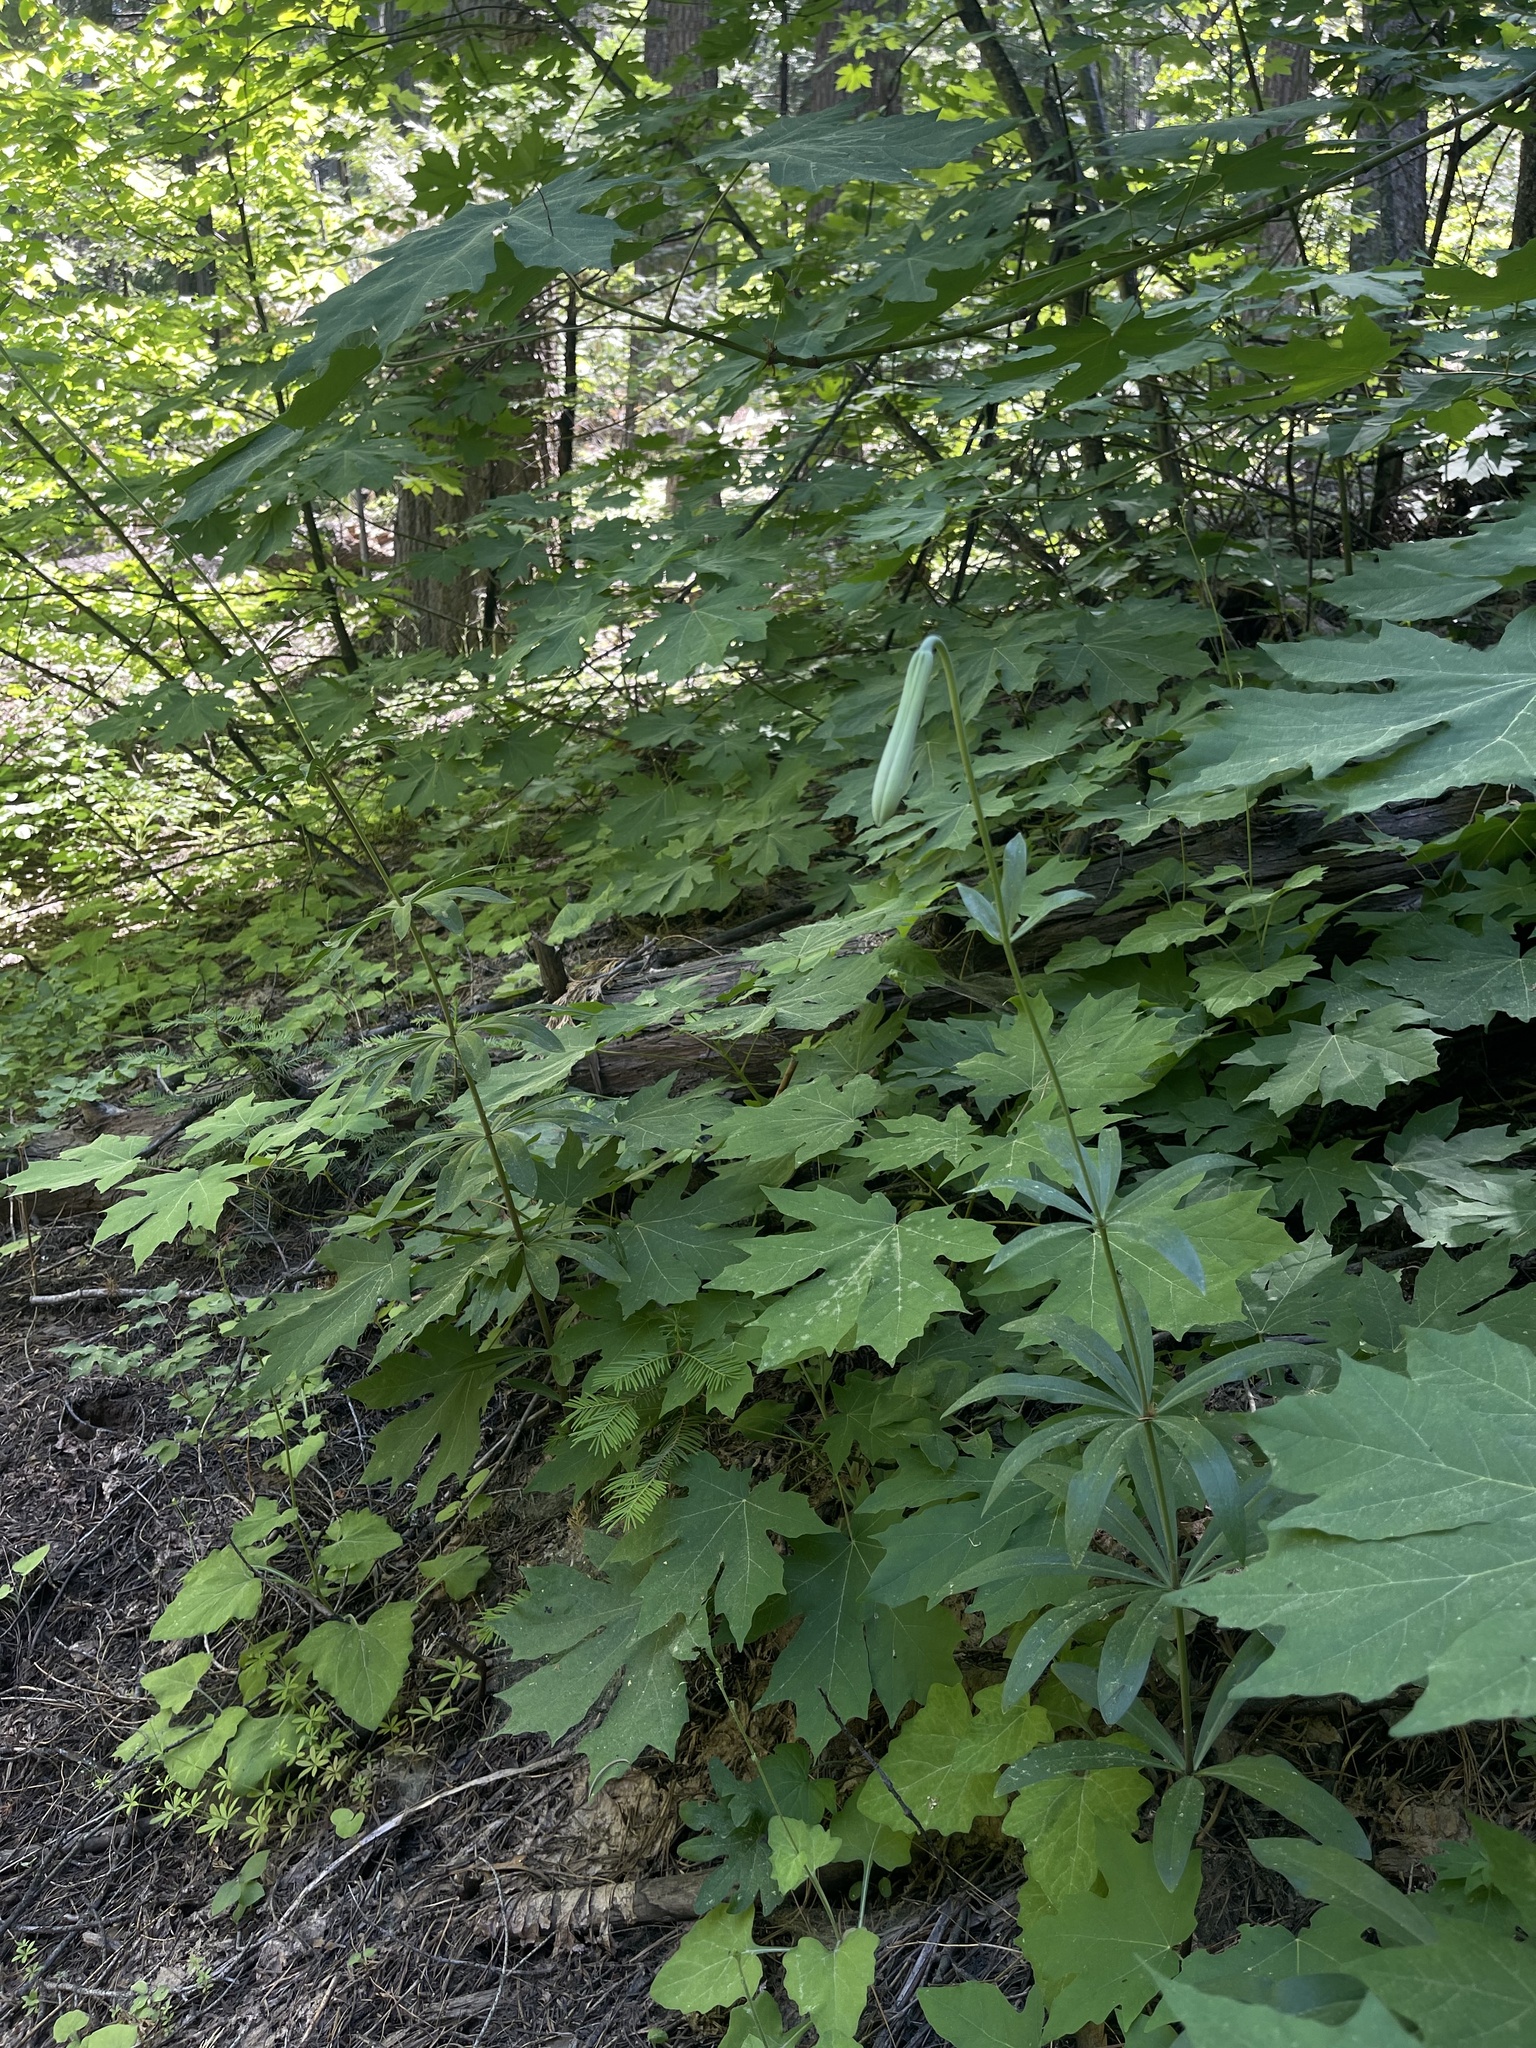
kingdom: Plantae
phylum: Tracheophyta
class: Liliopsida
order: Liliales
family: Liliaceae
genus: Lilium
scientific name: Lilium washingtonianum
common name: Washington lily
